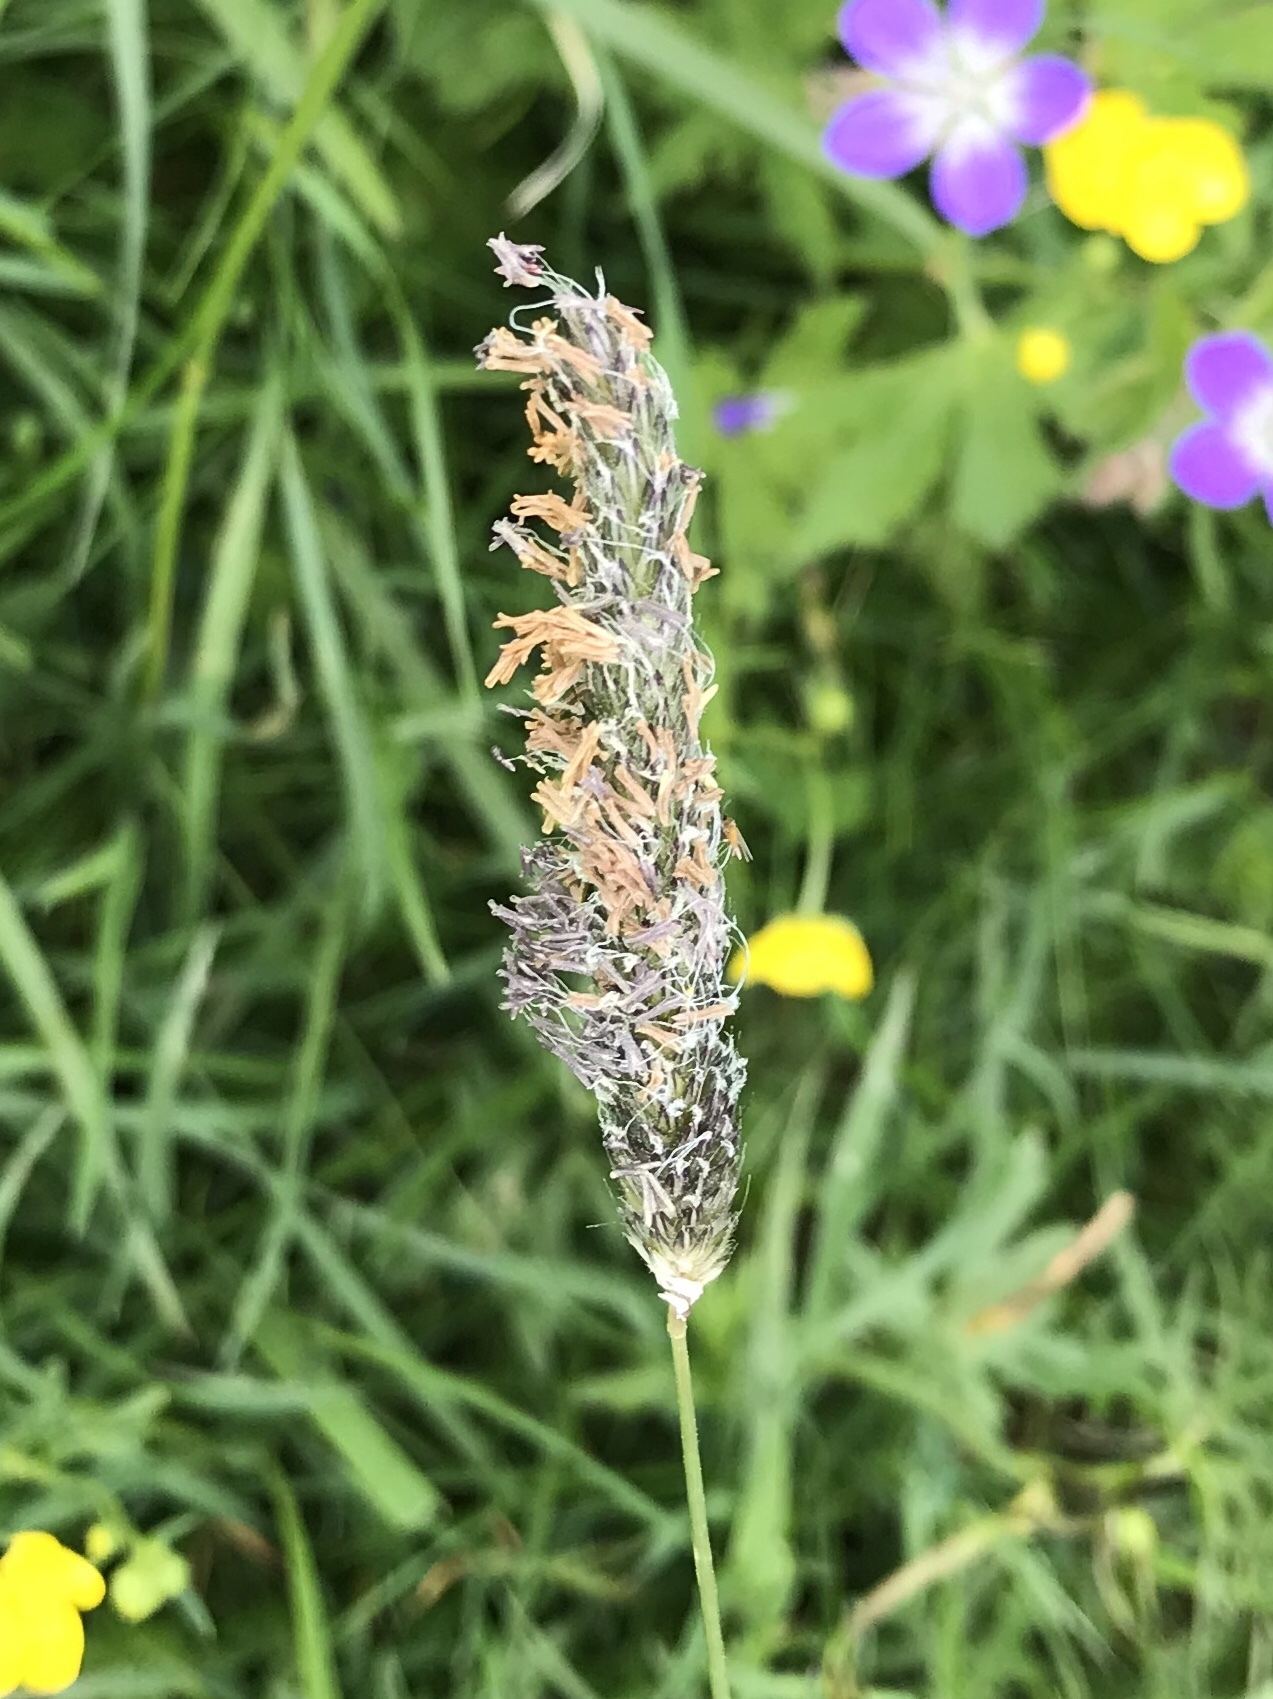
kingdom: Plantae
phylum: Tracheophyta
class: Liliopsida
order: Poales
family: Poaceae
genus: Alopecurus
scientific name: Alopecurus pratensis
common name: Meadow foxtail
